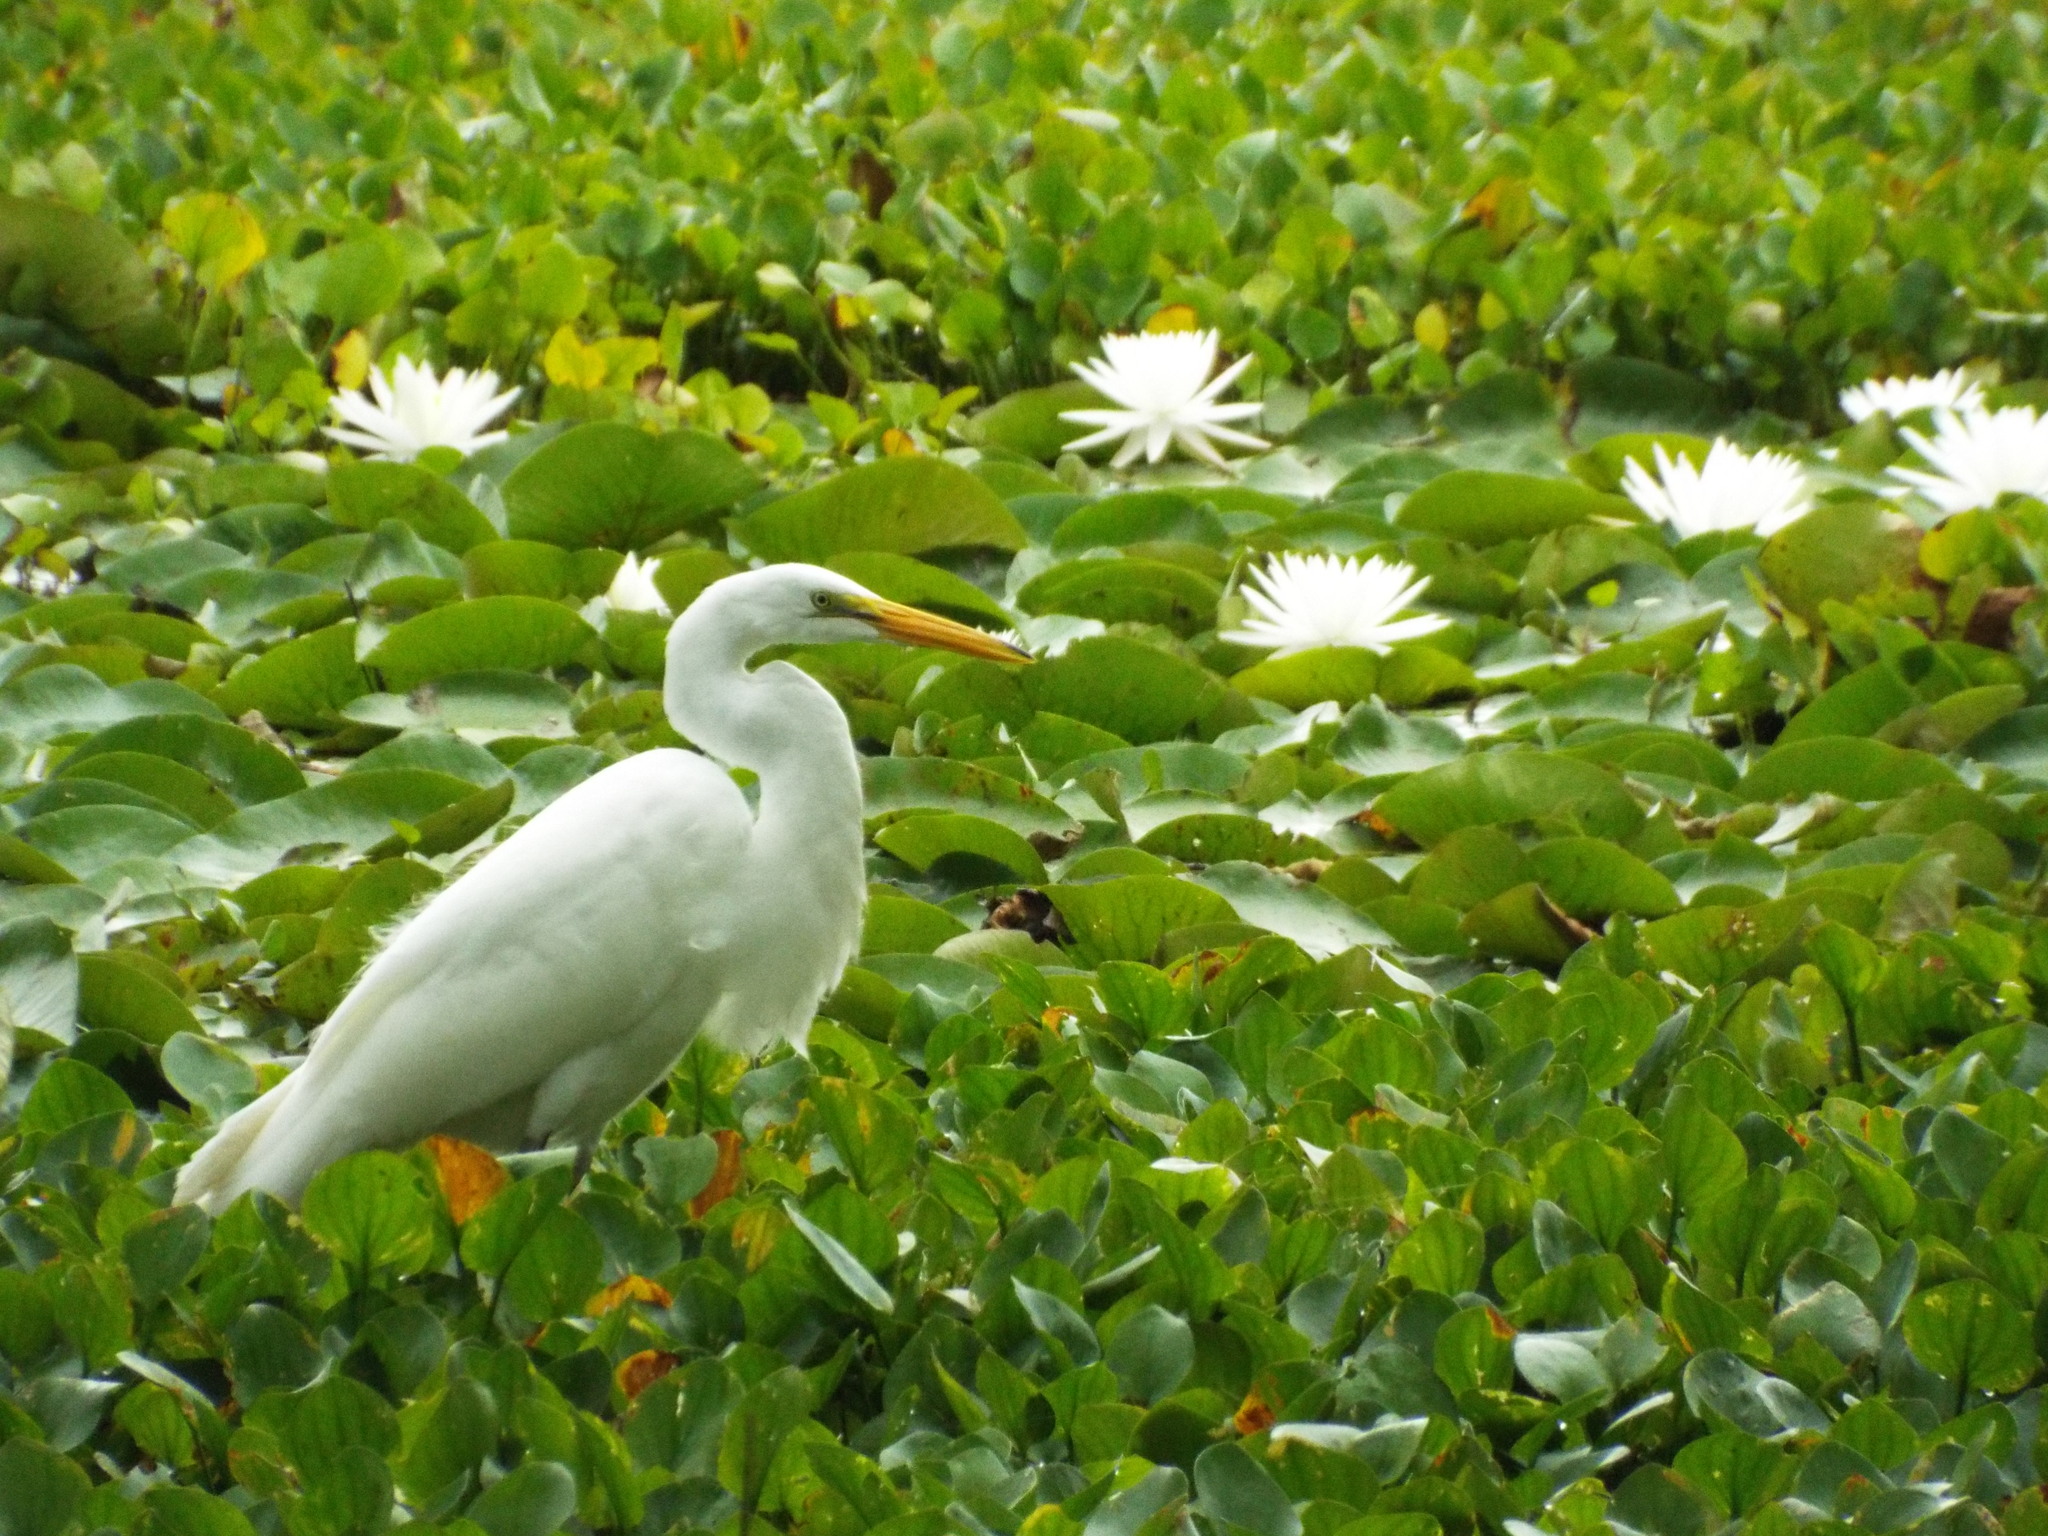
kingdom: Animalia
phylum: Chordata
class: Aves
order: Pelecaniformes
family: Ardeidae
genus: Ardea
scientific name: Ardea alba
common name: Great egret
